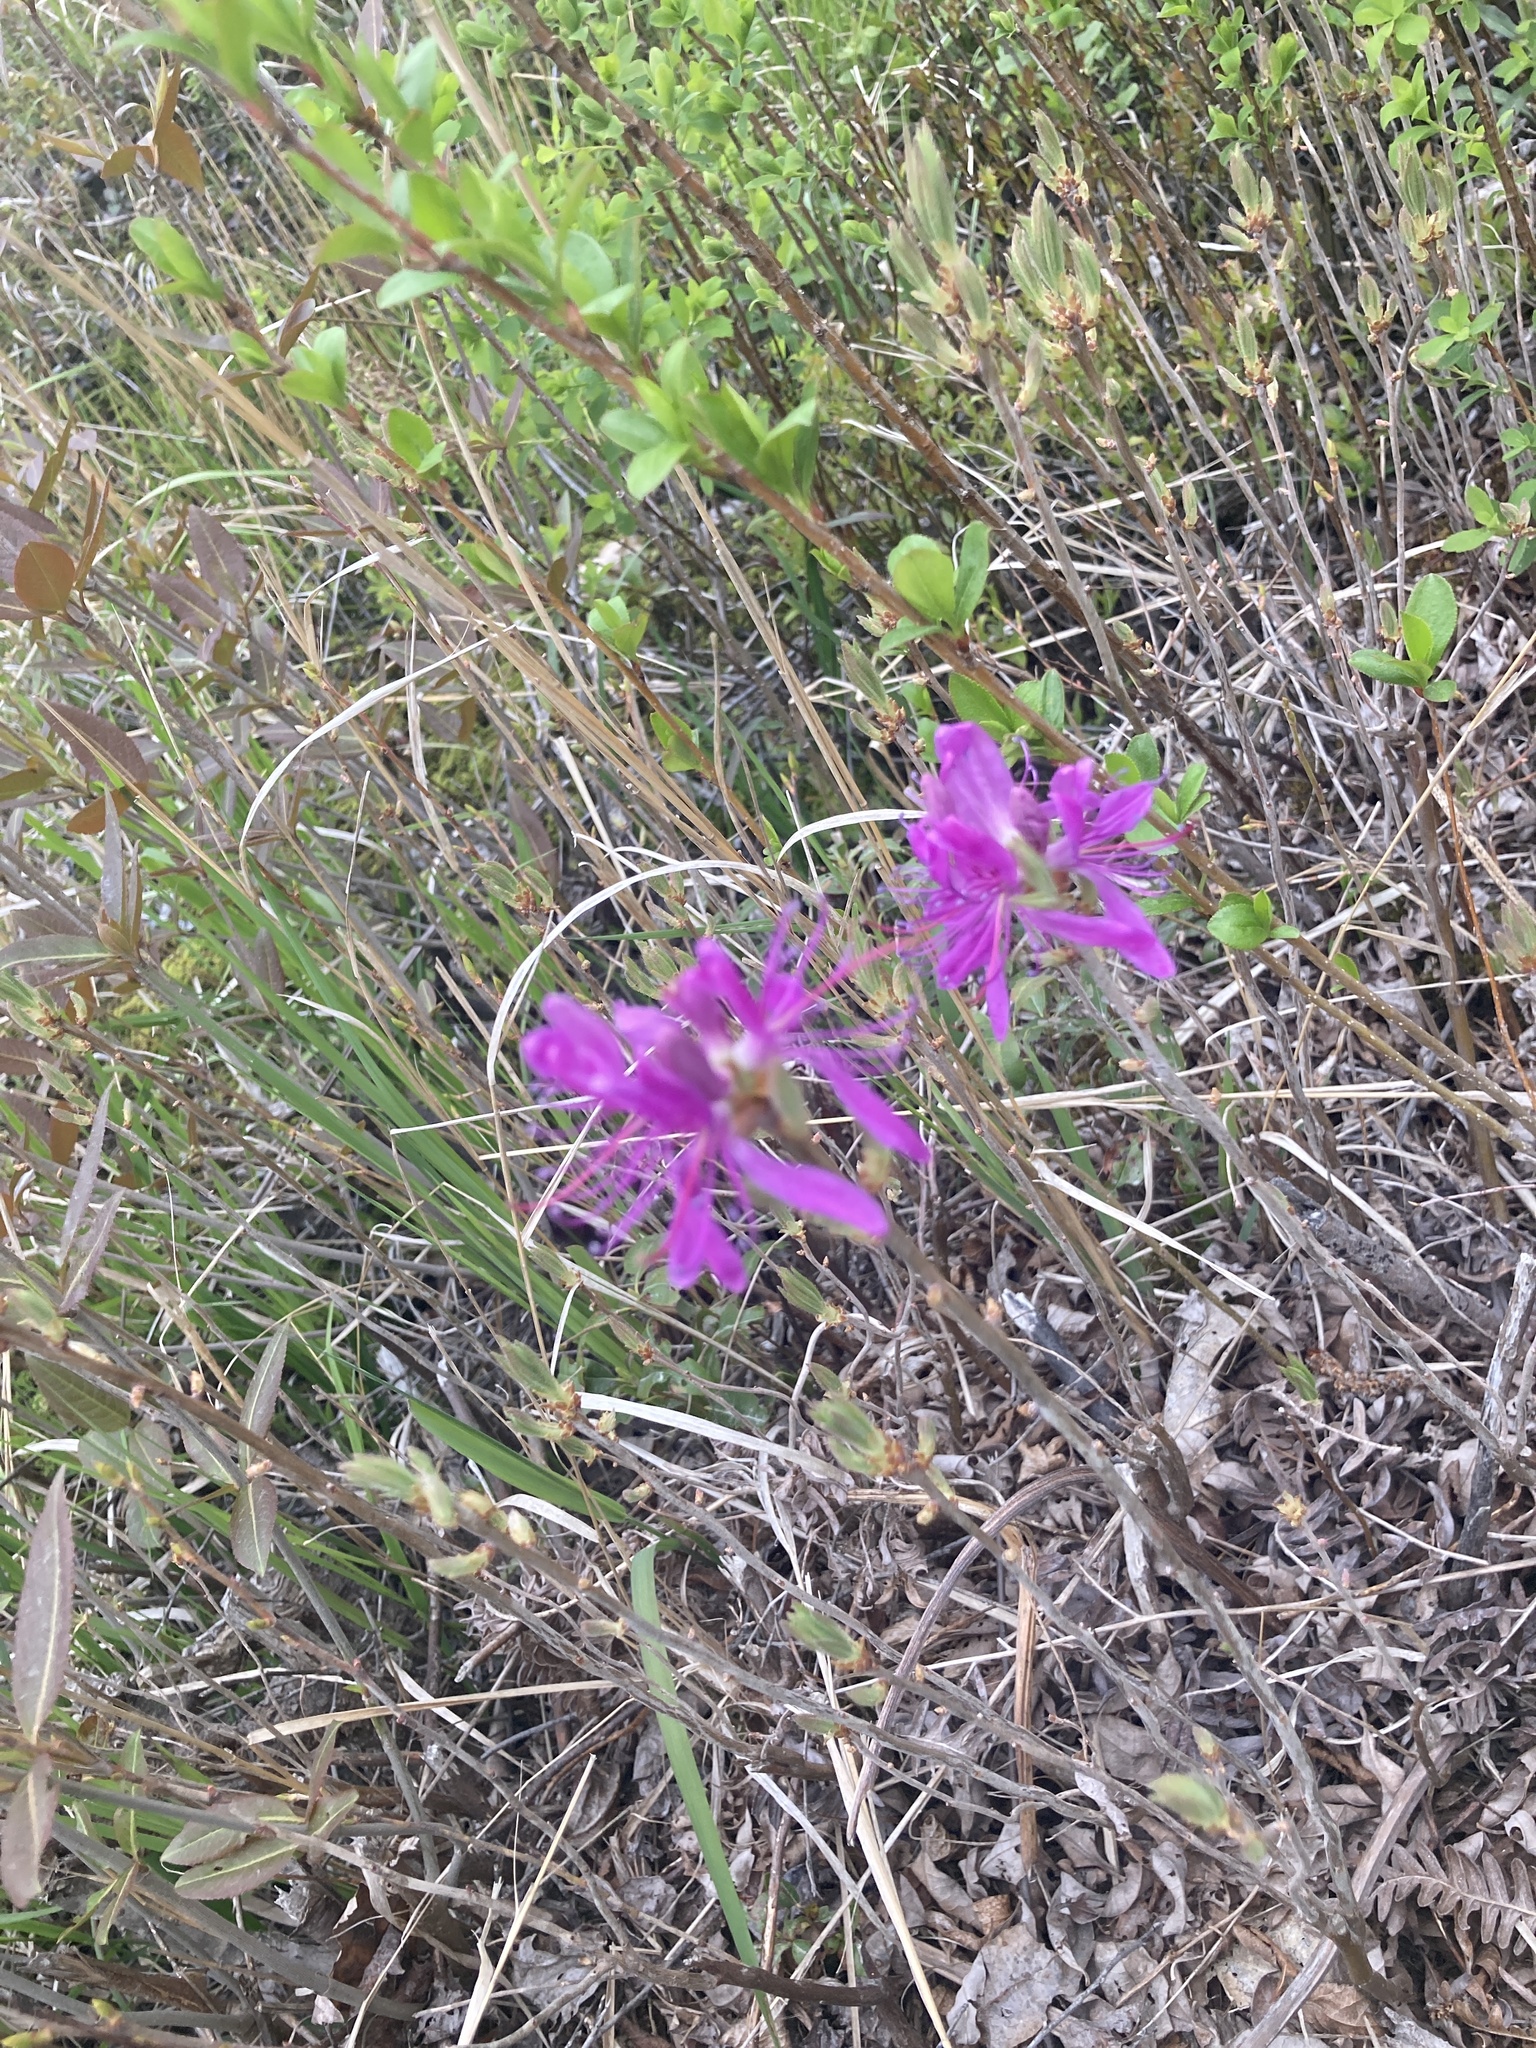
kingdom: Plantae
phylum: Tracheophyta
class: Magnoliopsida
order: Ericales
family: Ericaceae
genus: Rhododendron
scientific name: Rhododendron canadense
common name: Rhodora
